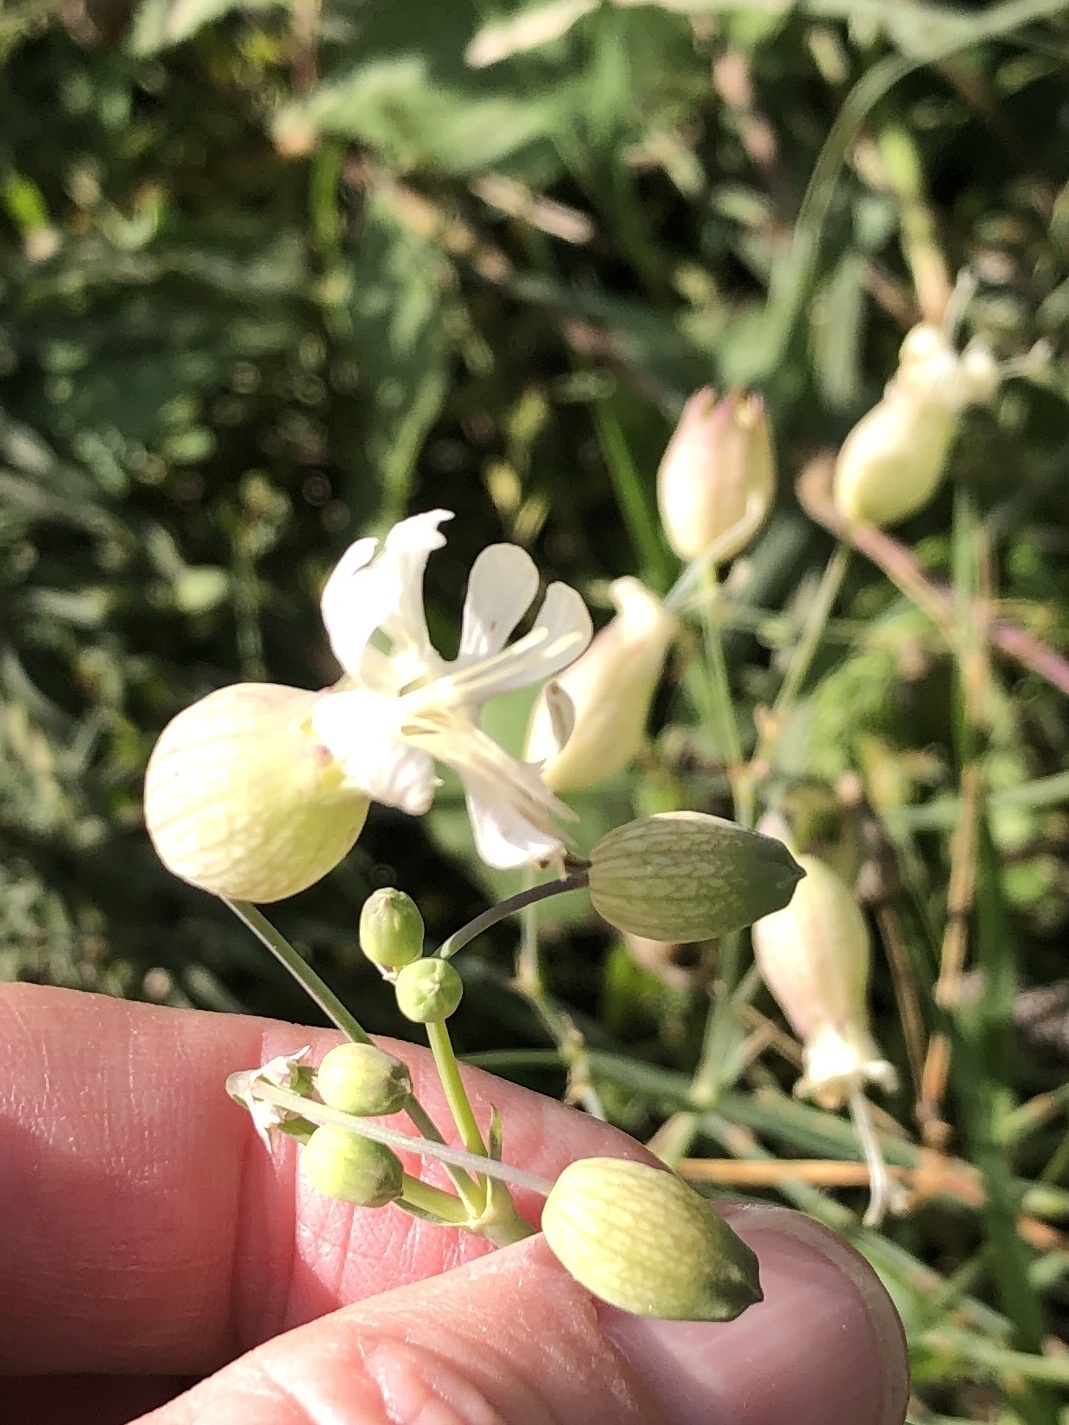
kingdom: Plantae
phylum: Tracheophyta
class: Magnoliopsida
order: Caryophyllales
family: Caryophyllaceae
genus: Silene
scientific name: Silene vulgaris
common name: Bladder campion
